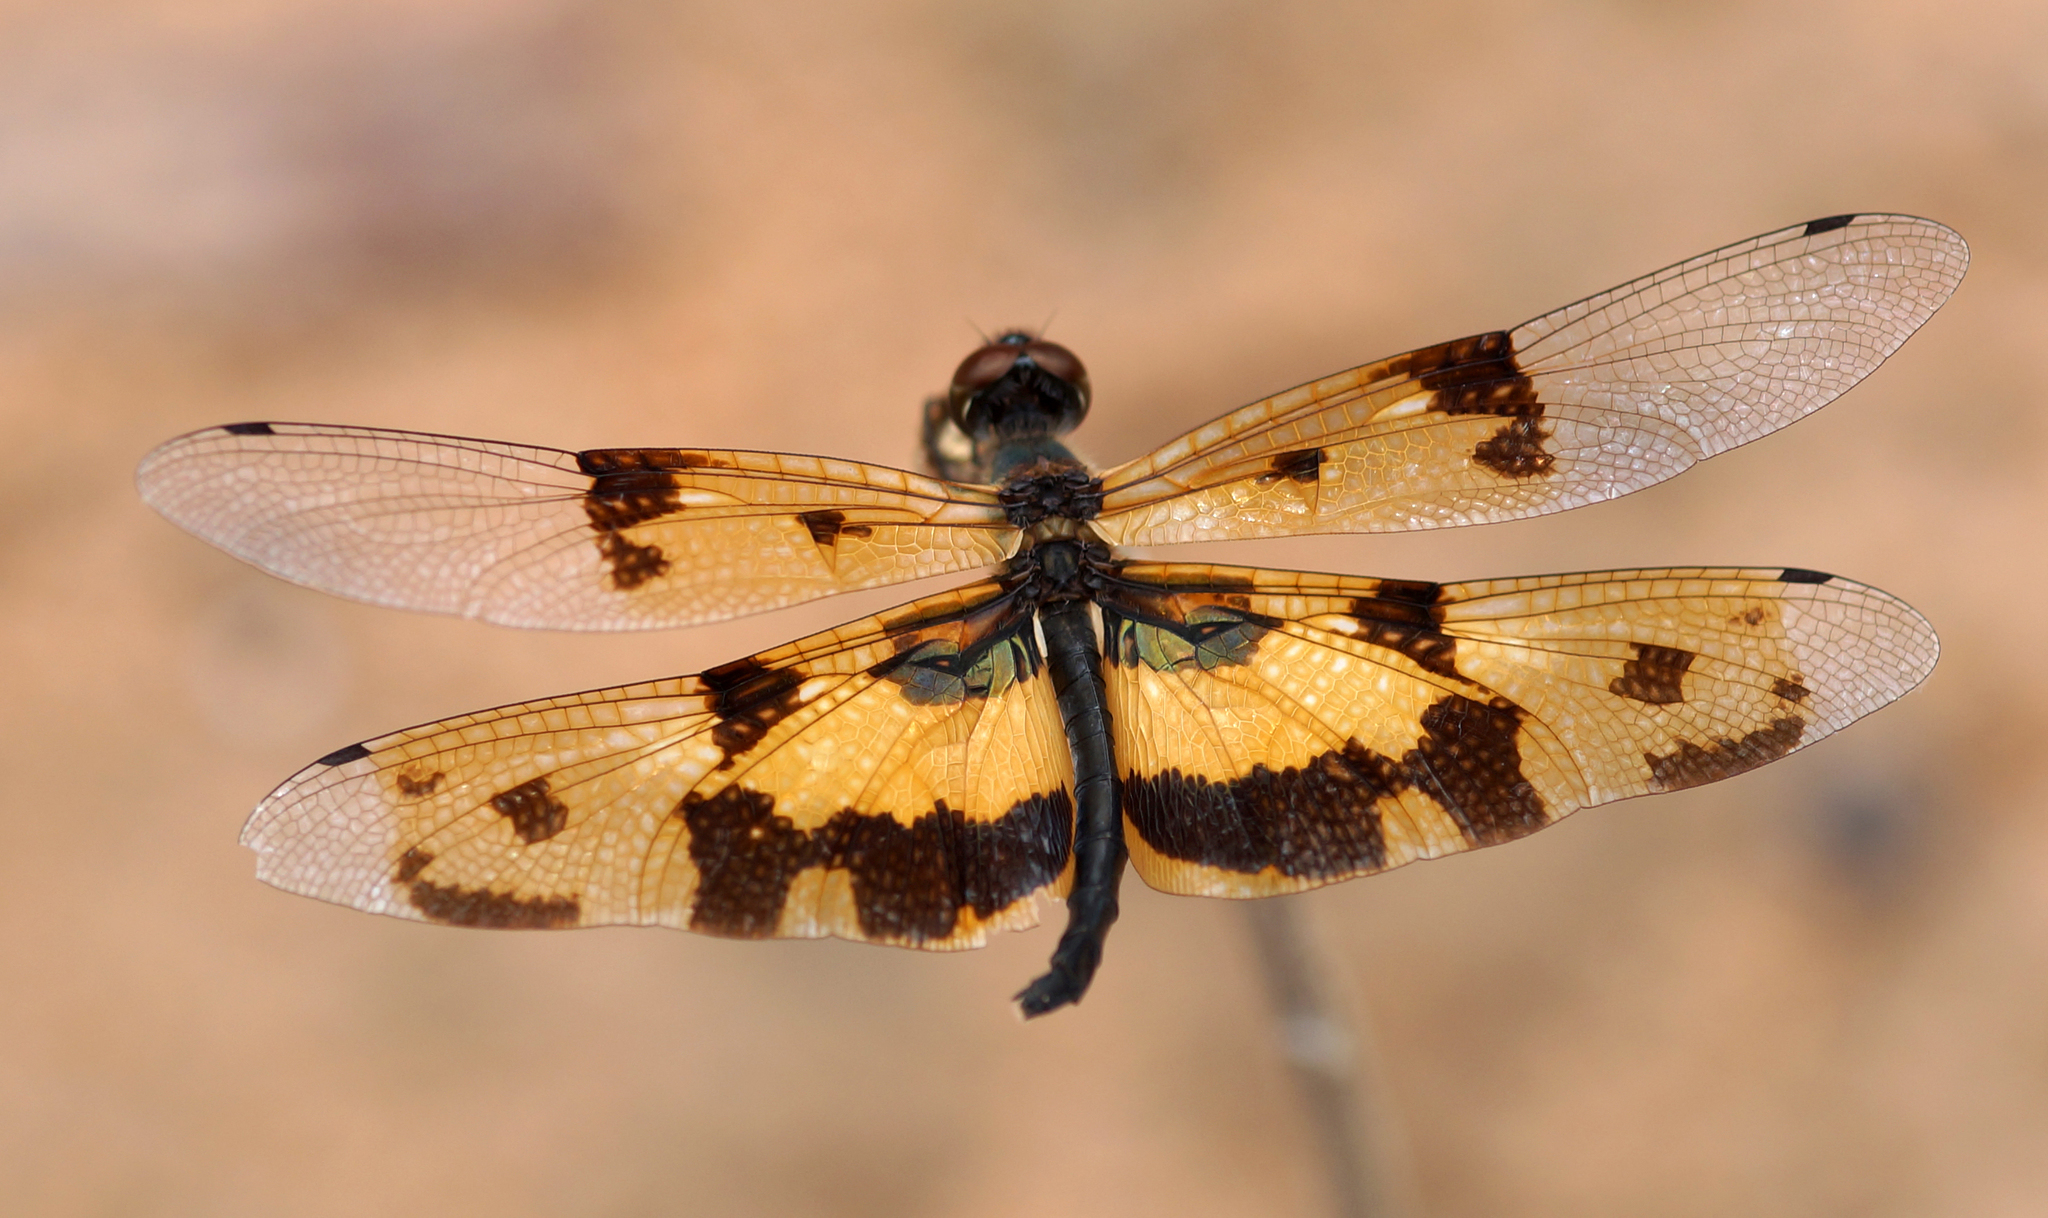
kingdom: Animalia
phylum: Arthropoda
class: Insecta
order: Odonata
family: Libellulidae
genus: Rhyothemis
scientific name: Rhyothemis variegata
